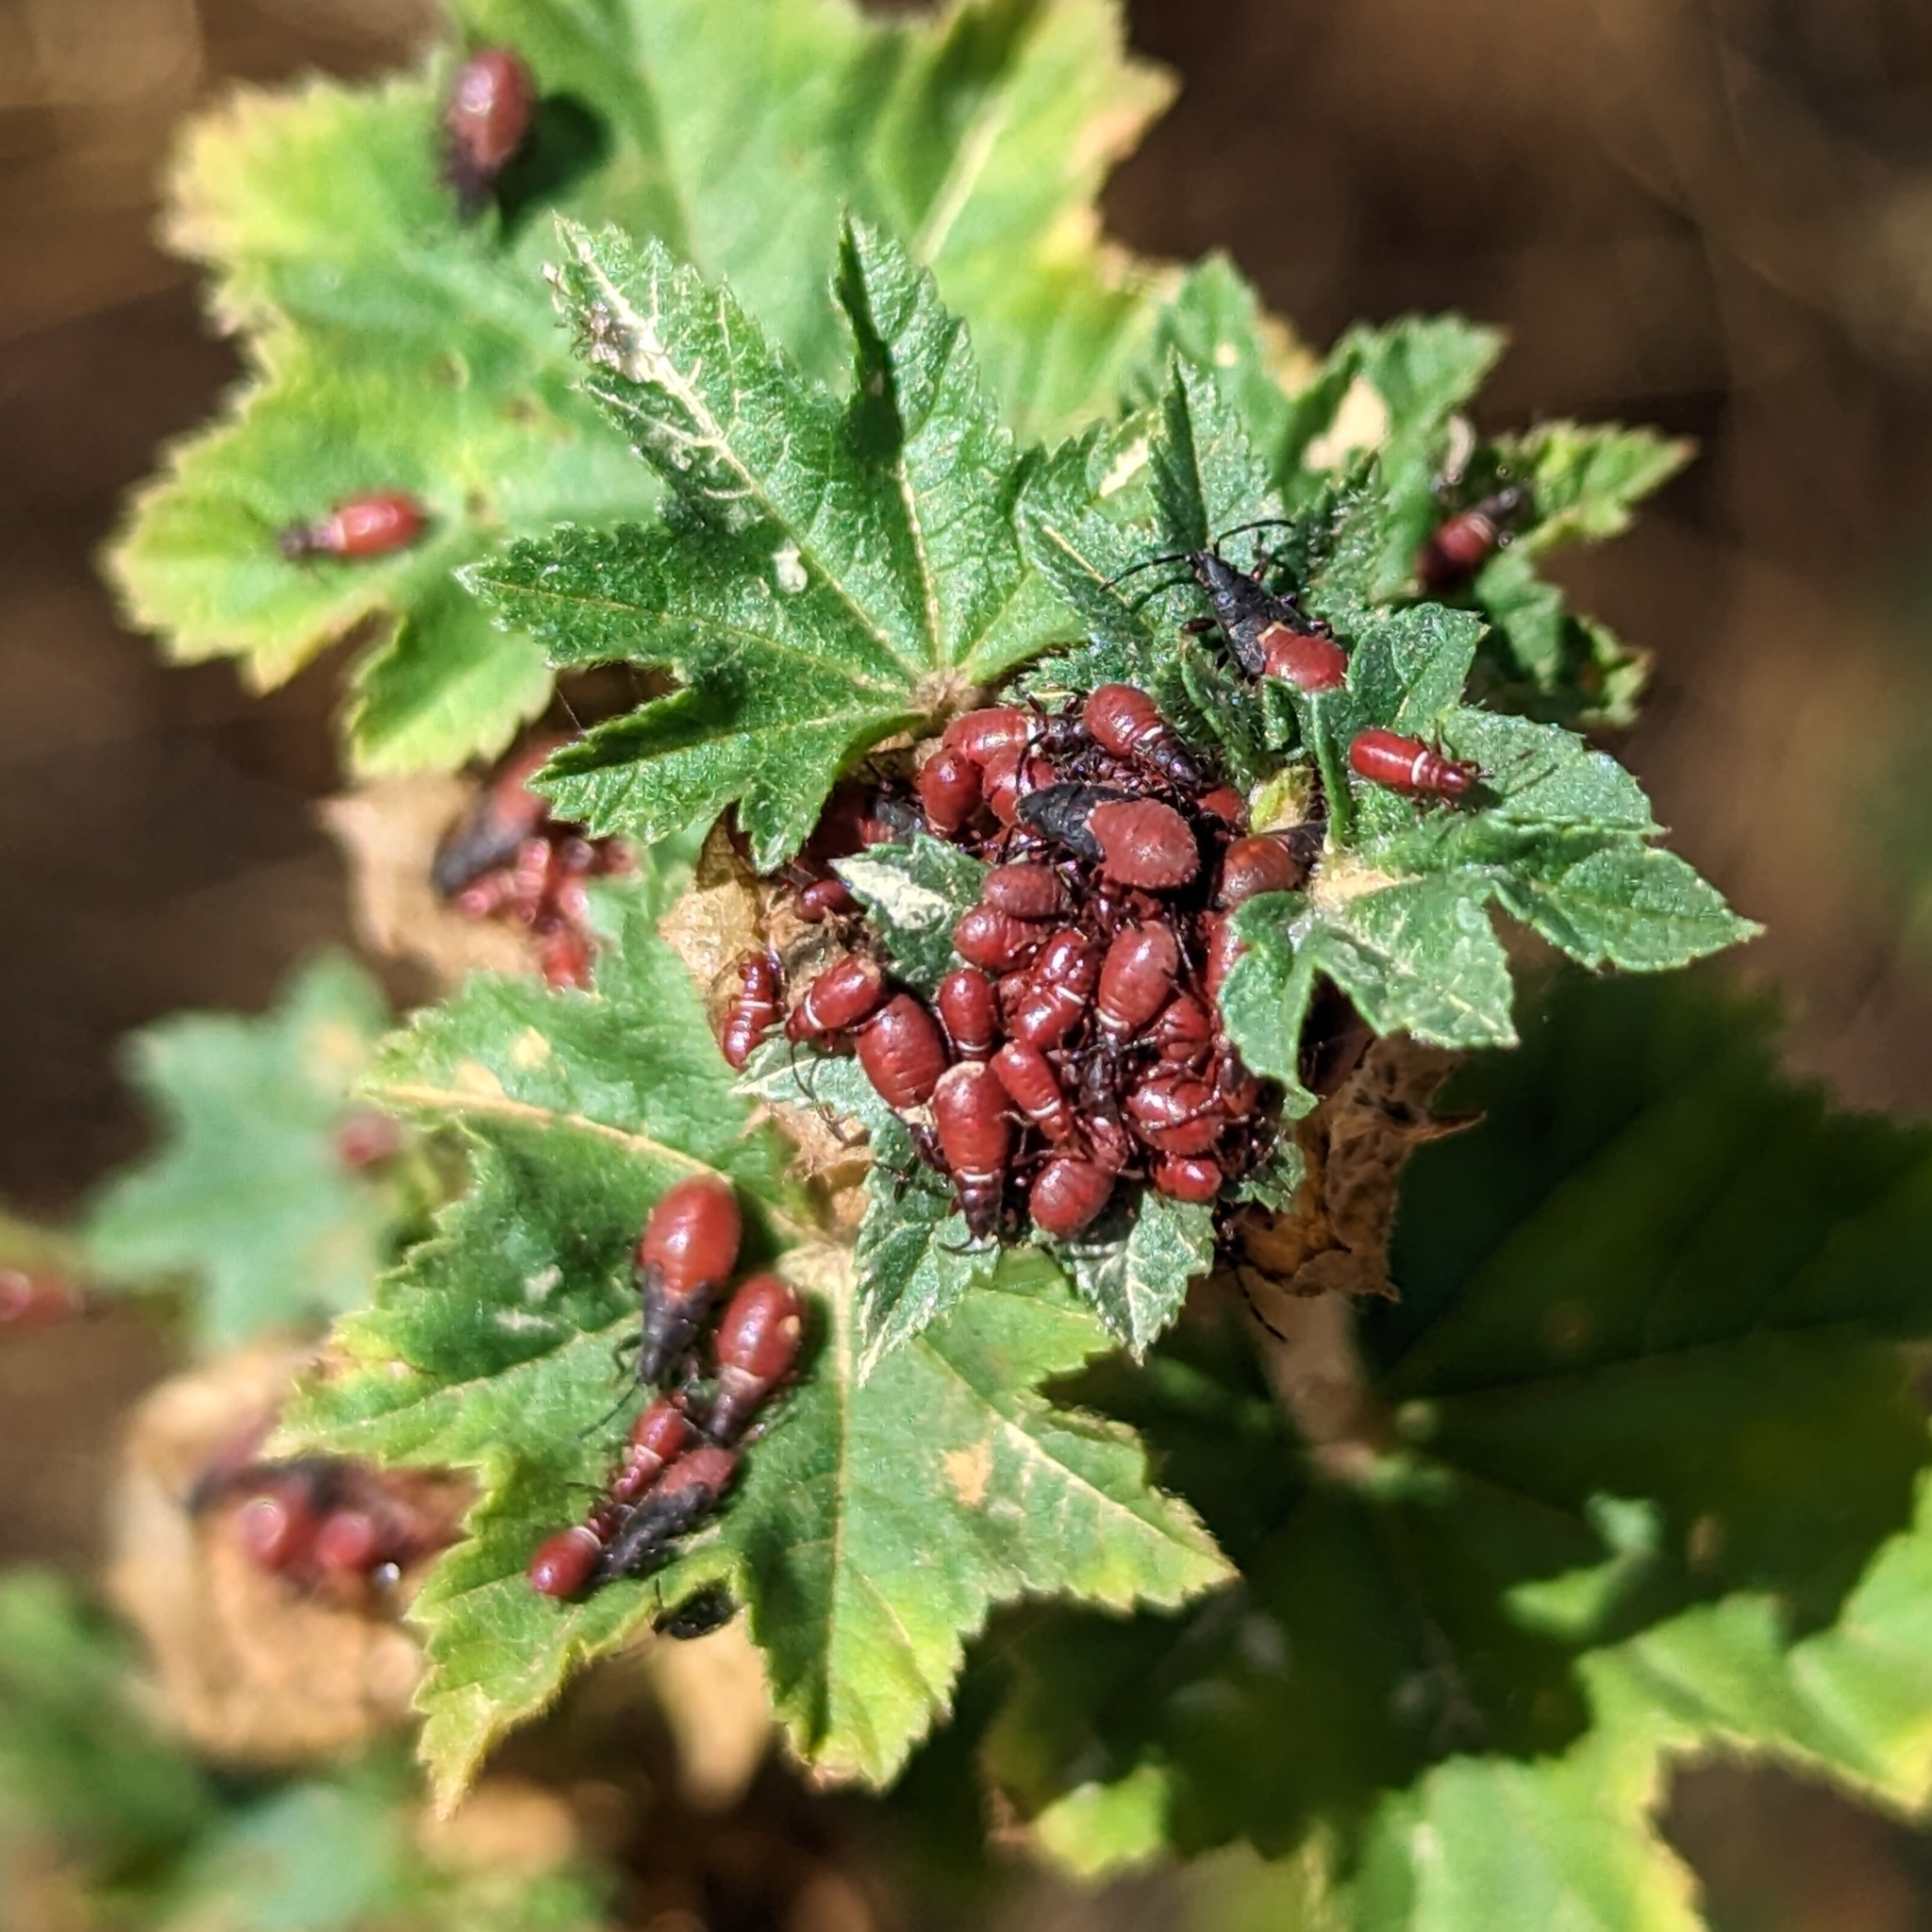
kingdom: Animalia
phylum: Arthropoda
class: Insecta
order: Hemiptera
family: Oxycarenidae
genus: Oxycarenus
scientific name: Oxycarenus lavaterae
